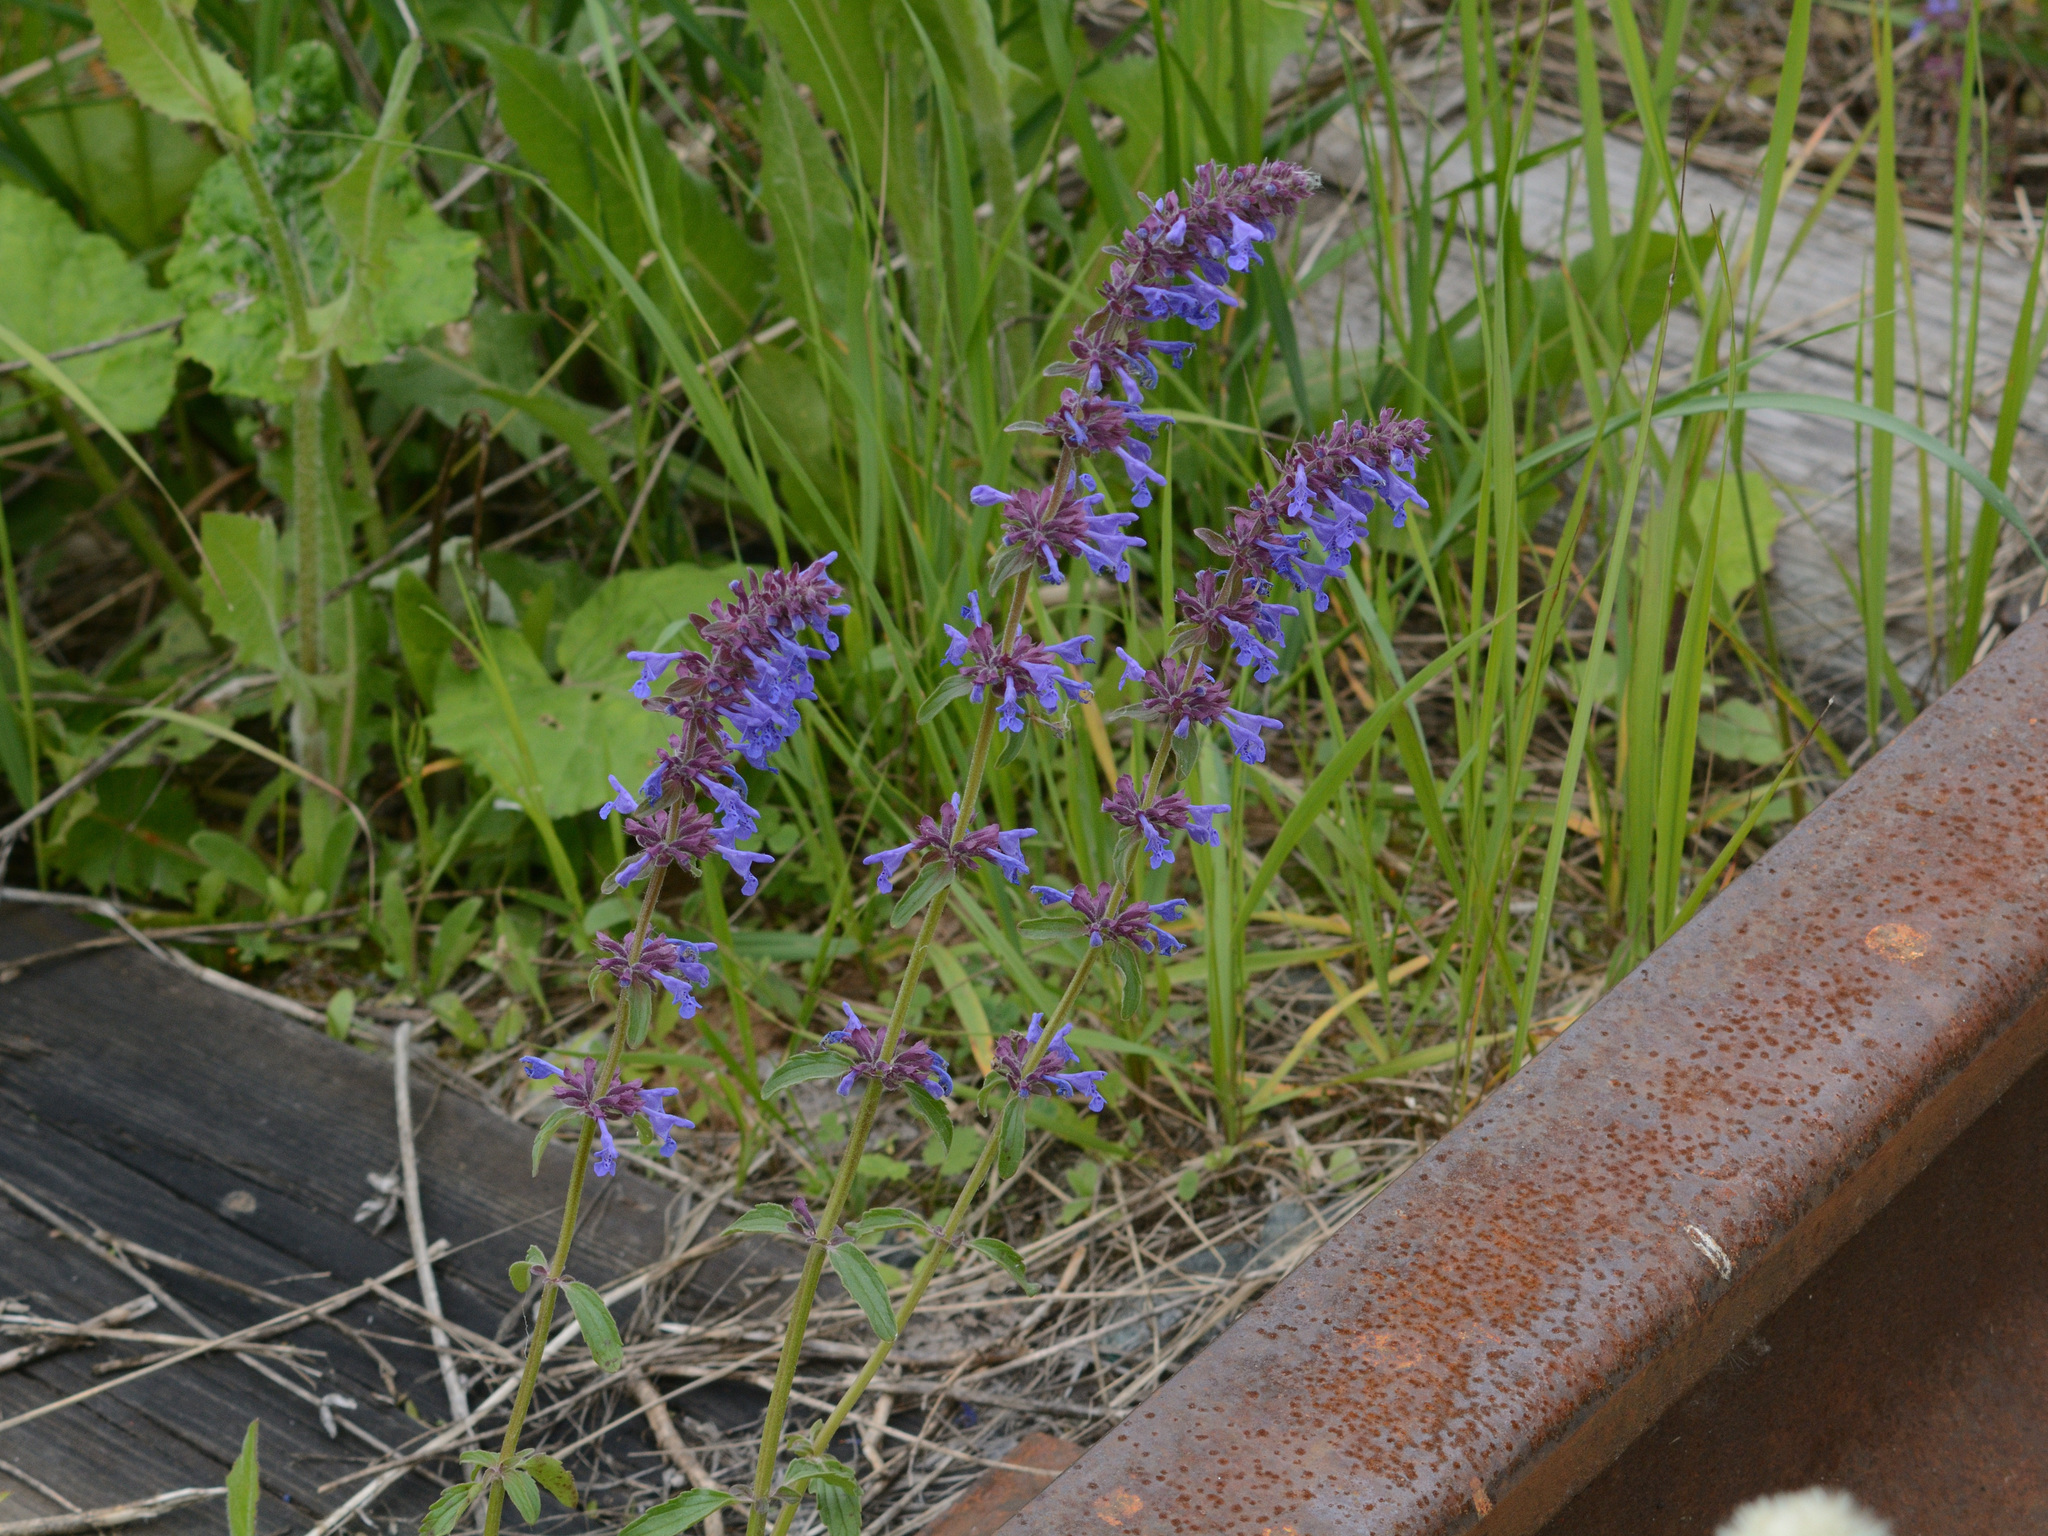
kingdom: Plantae
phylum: Tracheophyta
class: Magnoliopsida
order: Lamiales
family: Lamiaceae
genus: Dracocephalum
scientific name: Dracocephalum nutans
